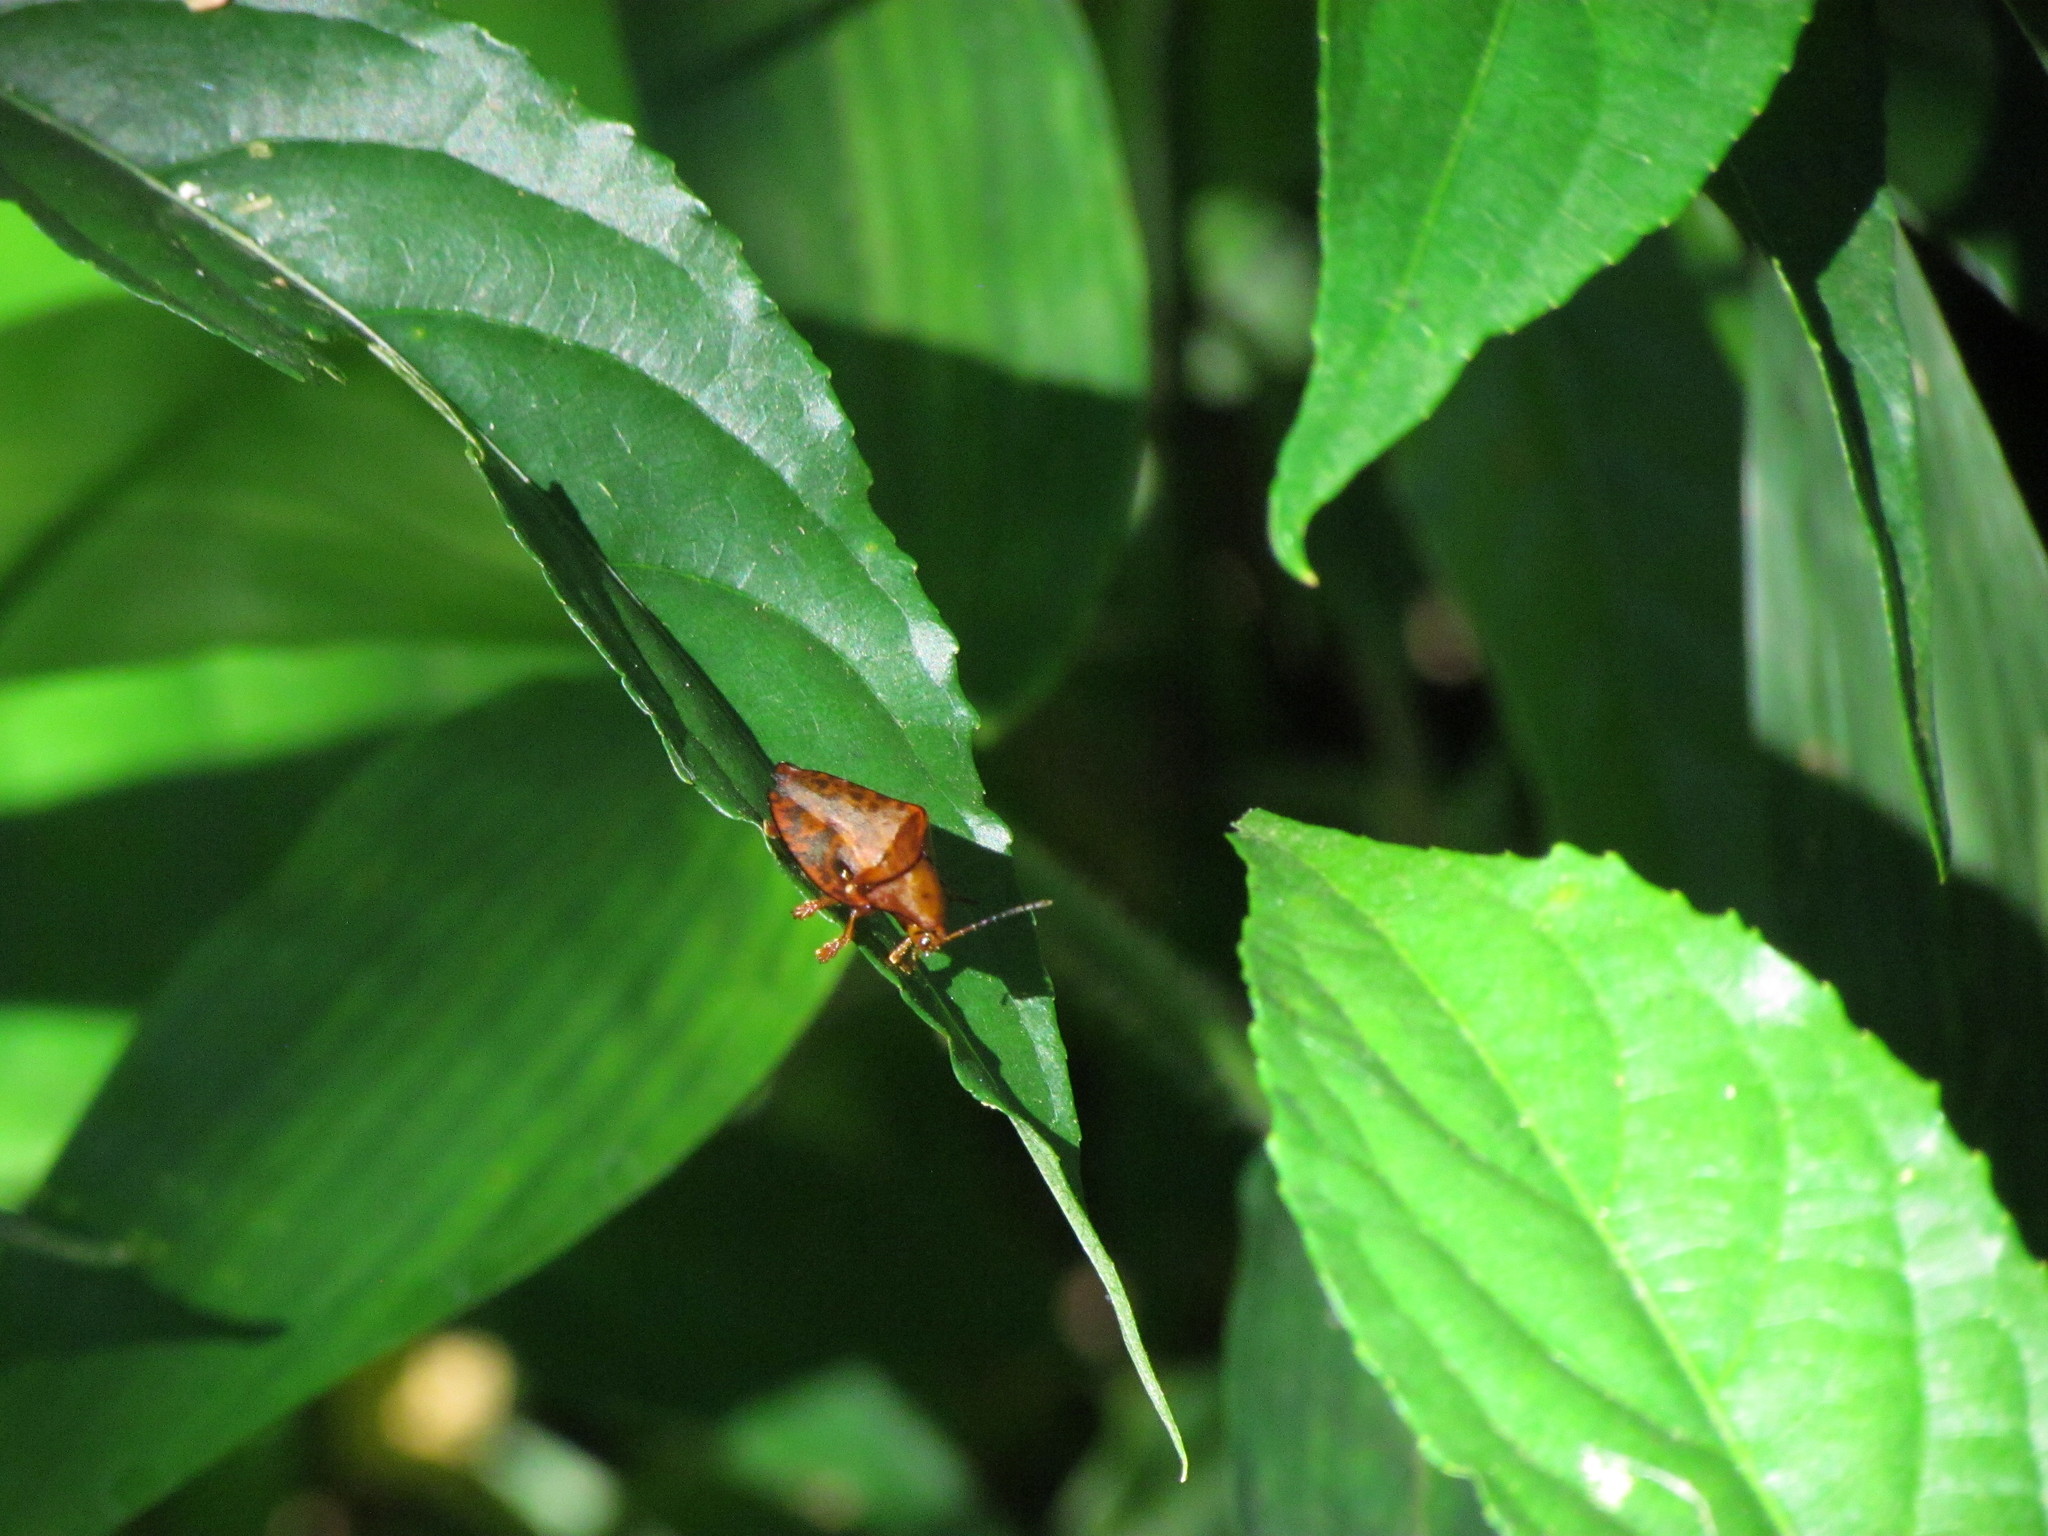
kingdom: Animalia
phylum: Arthropoda
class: Insecta
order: Coleoptera
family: Chrysomelidae
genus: Acromis
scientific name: Acromis spinifex
